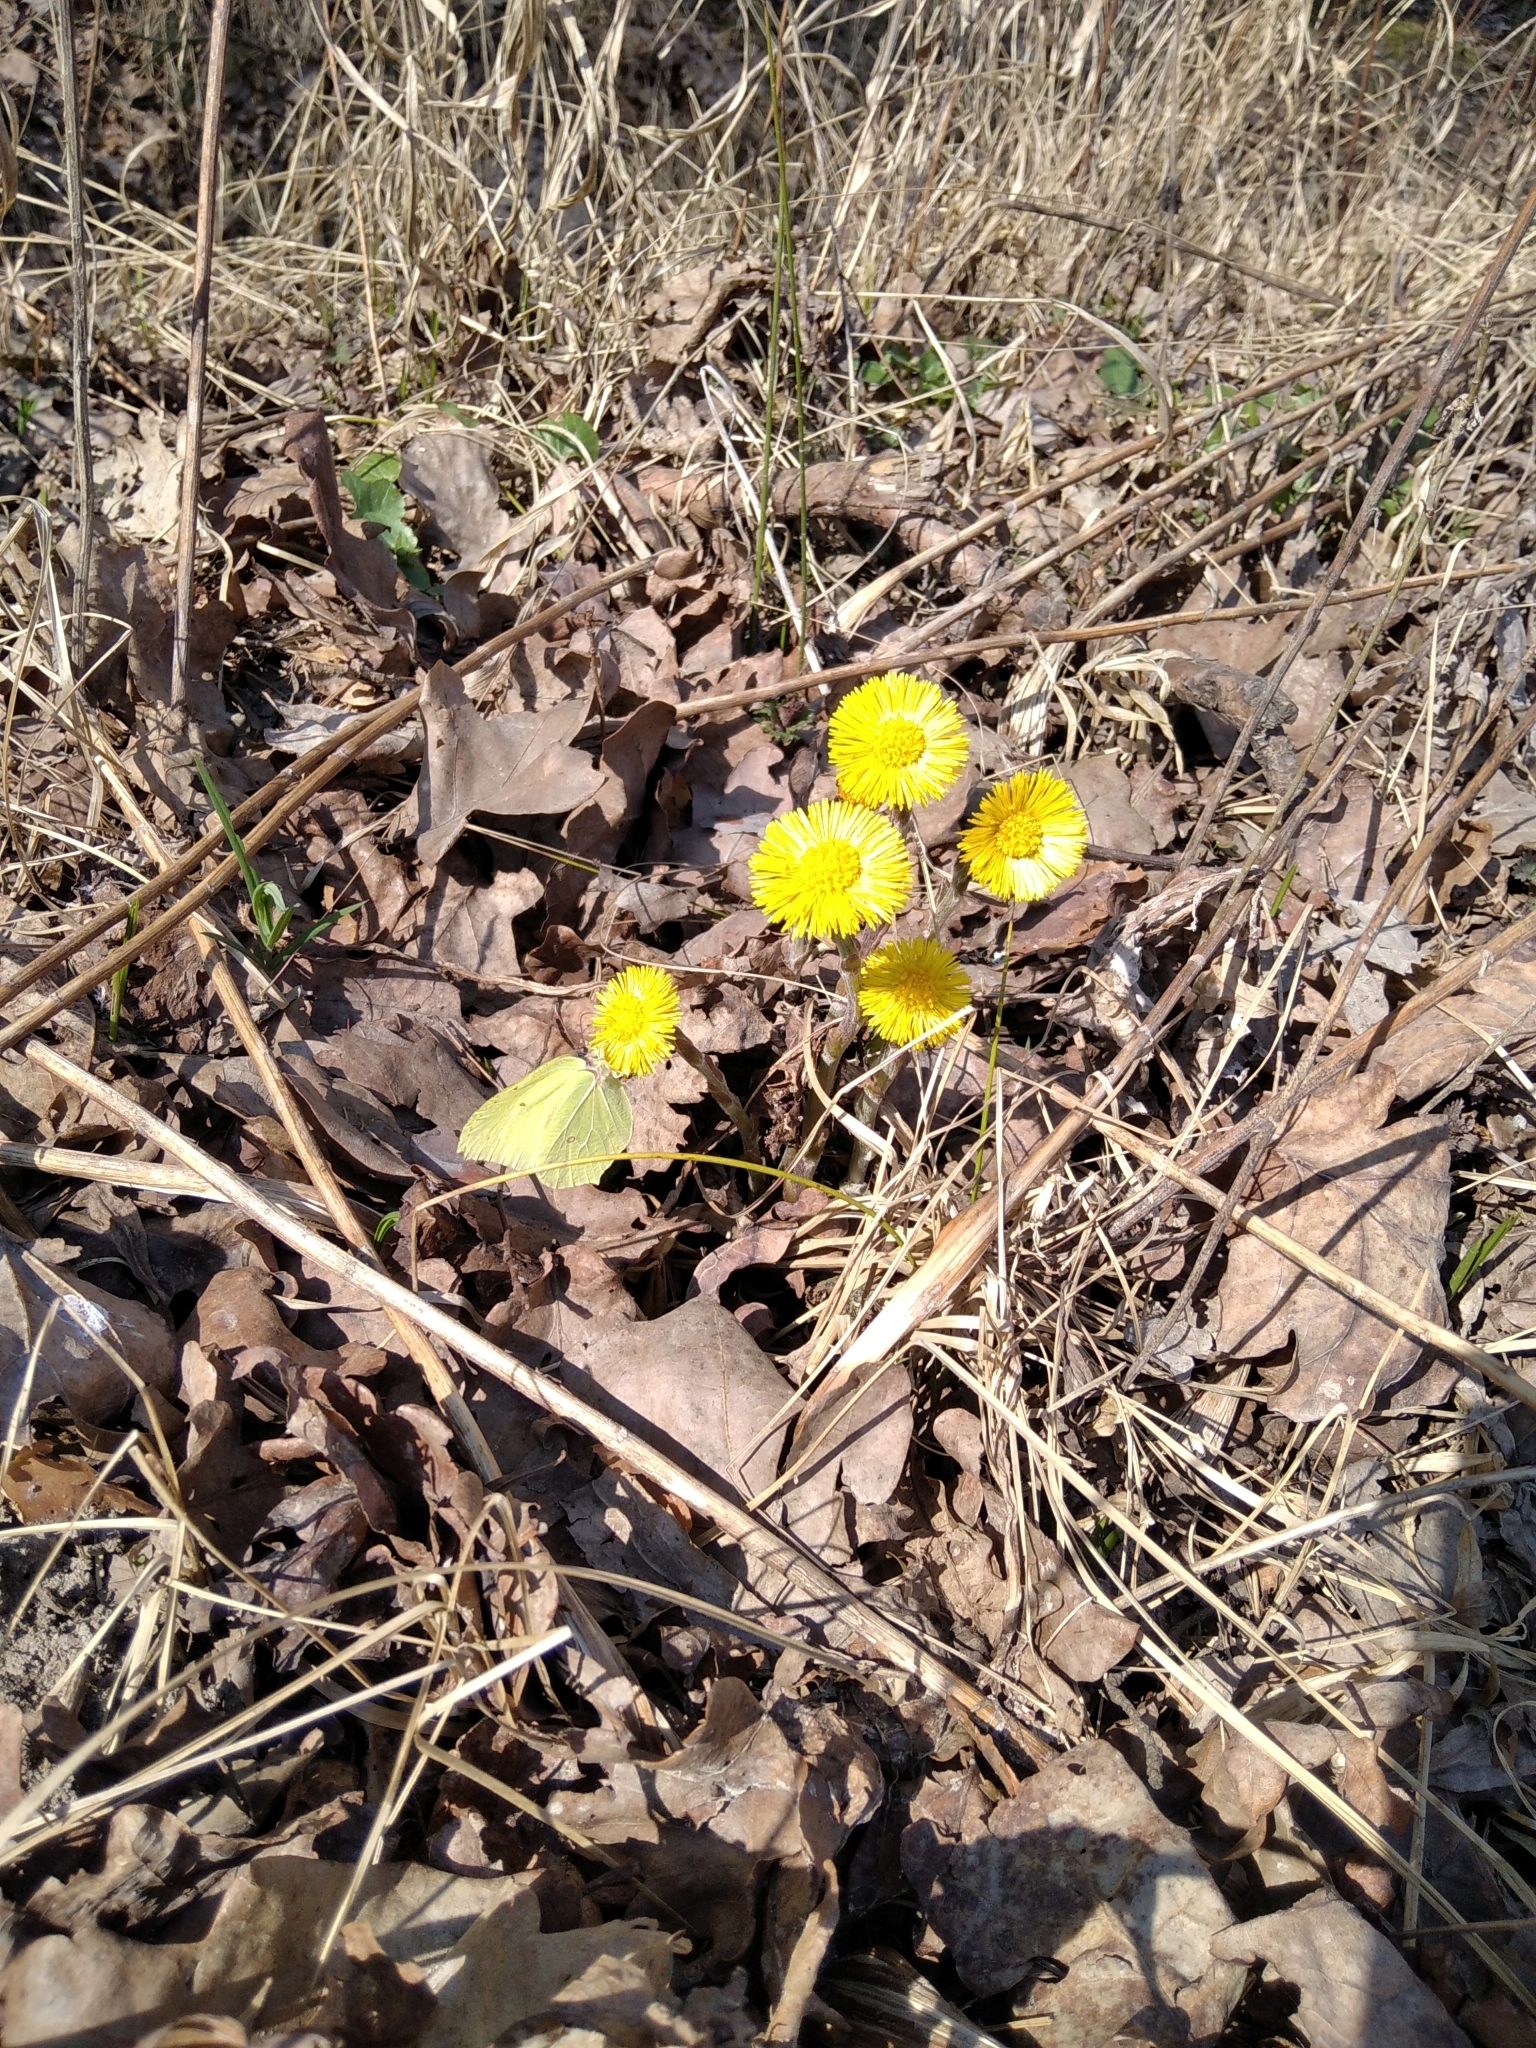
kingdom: Animalia
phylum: Arthropoda
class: Insecta
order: Lepidoptera
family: Pieridae
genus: Gonepteryx
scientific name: Gonepteryx rhamni
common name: Brimstone
